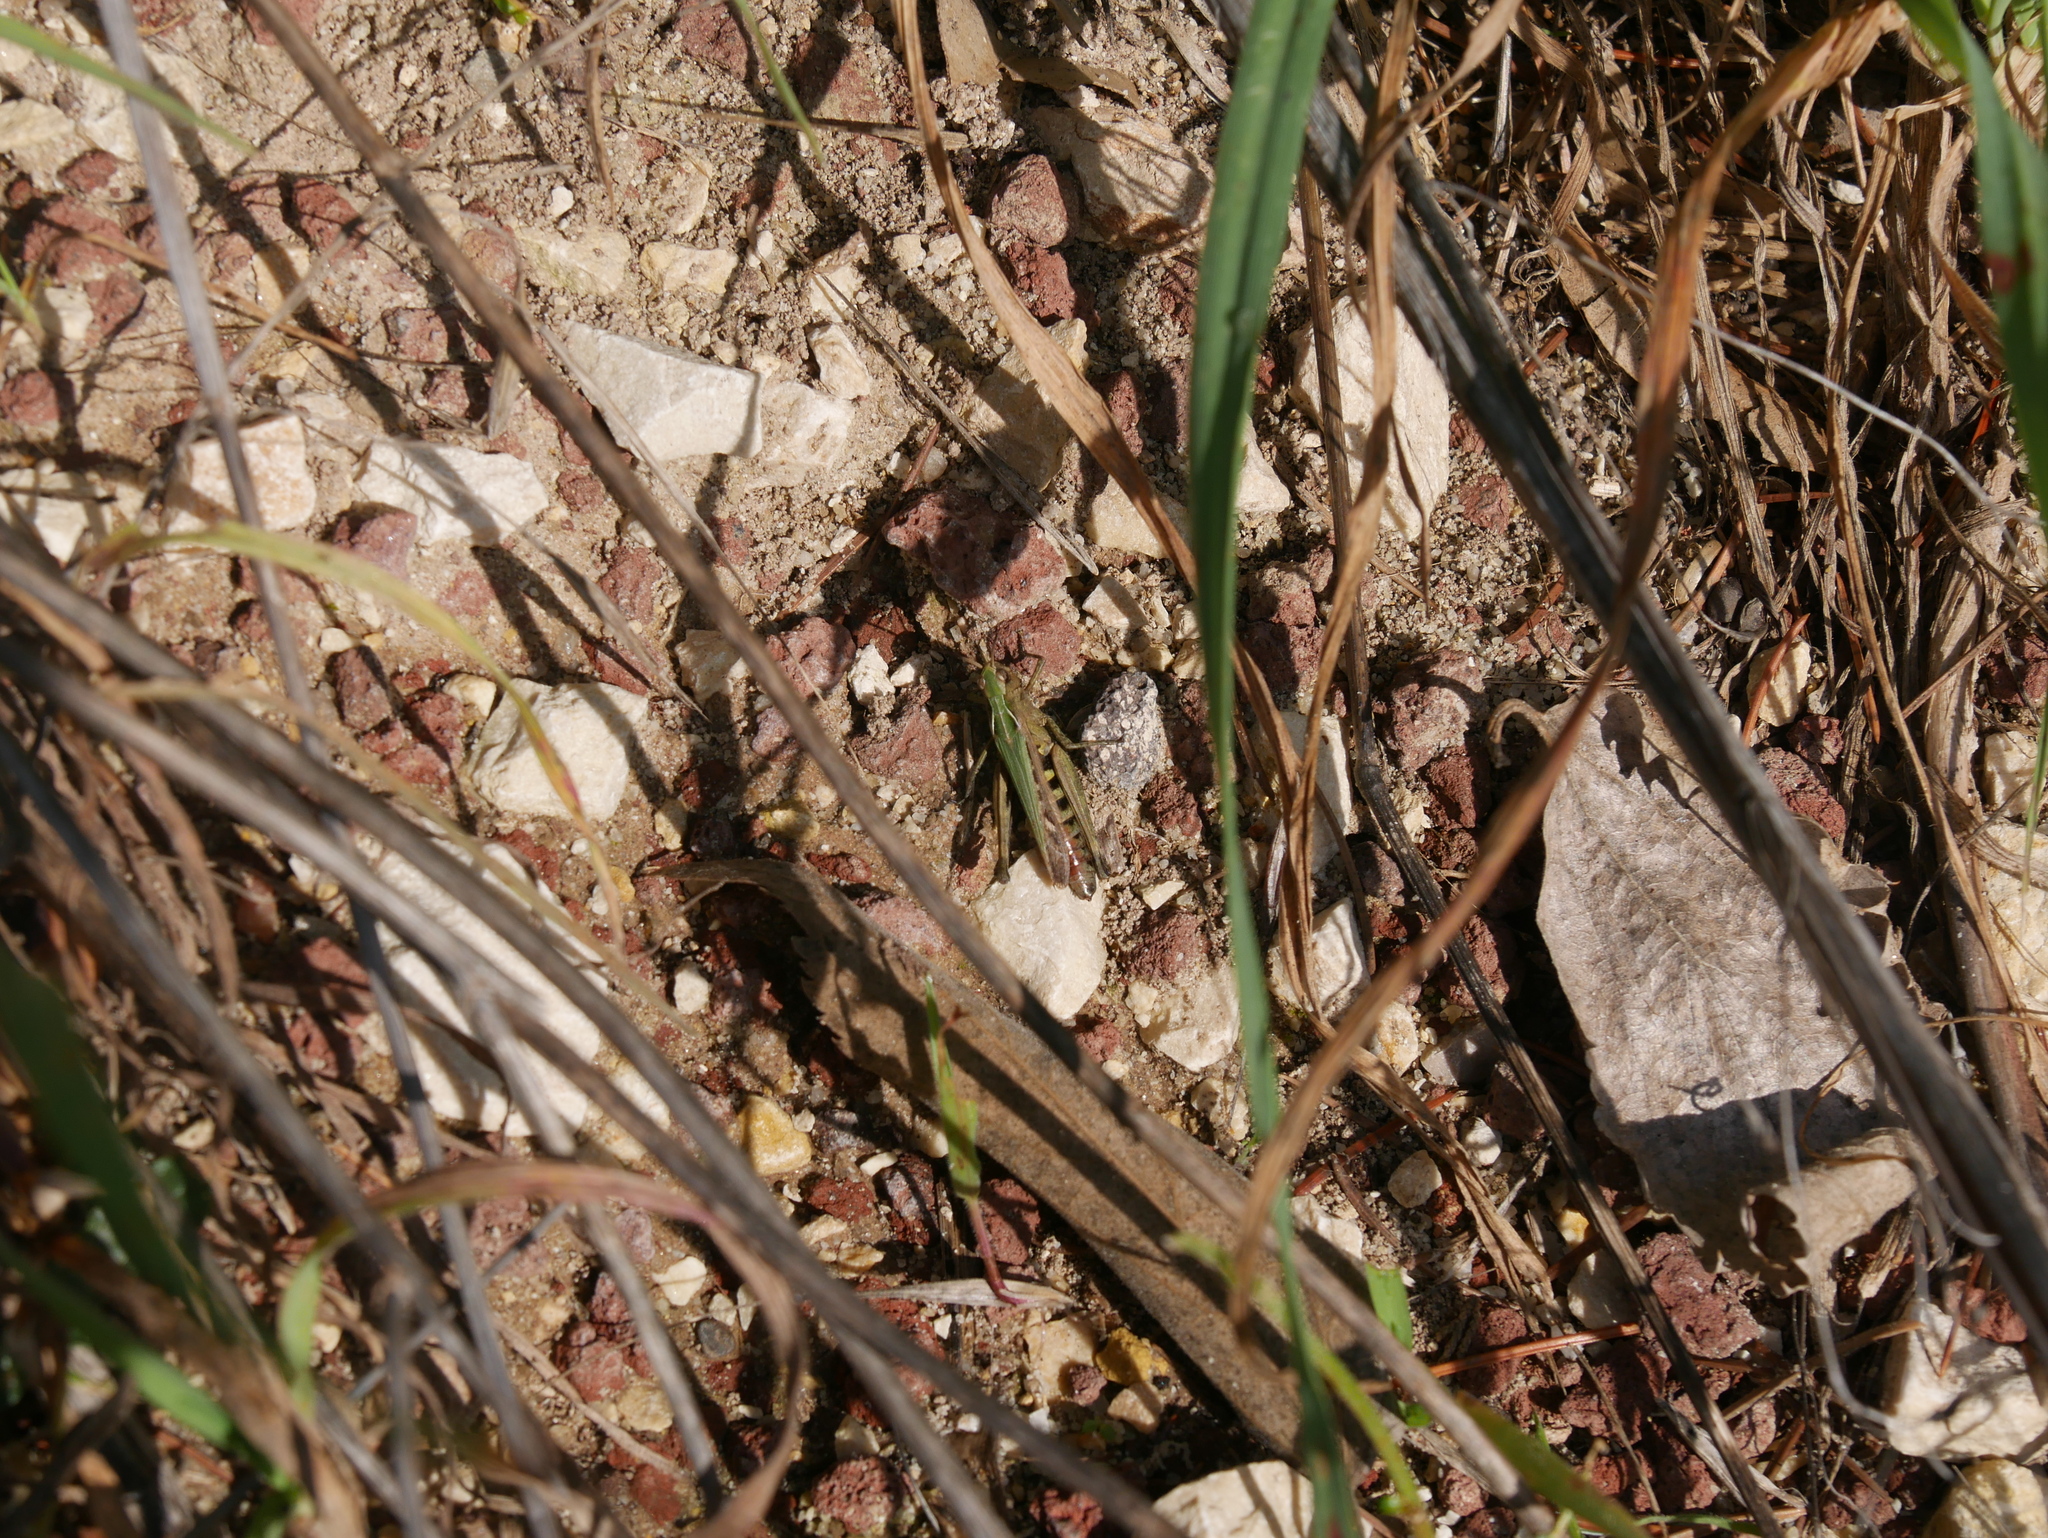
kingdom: Animalia
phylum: Arthropoda
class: Insecta
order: Orthoptera
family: Acrididae
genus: Omocestus
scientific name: Omocestus rufipes
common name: Woodland grasshopper
